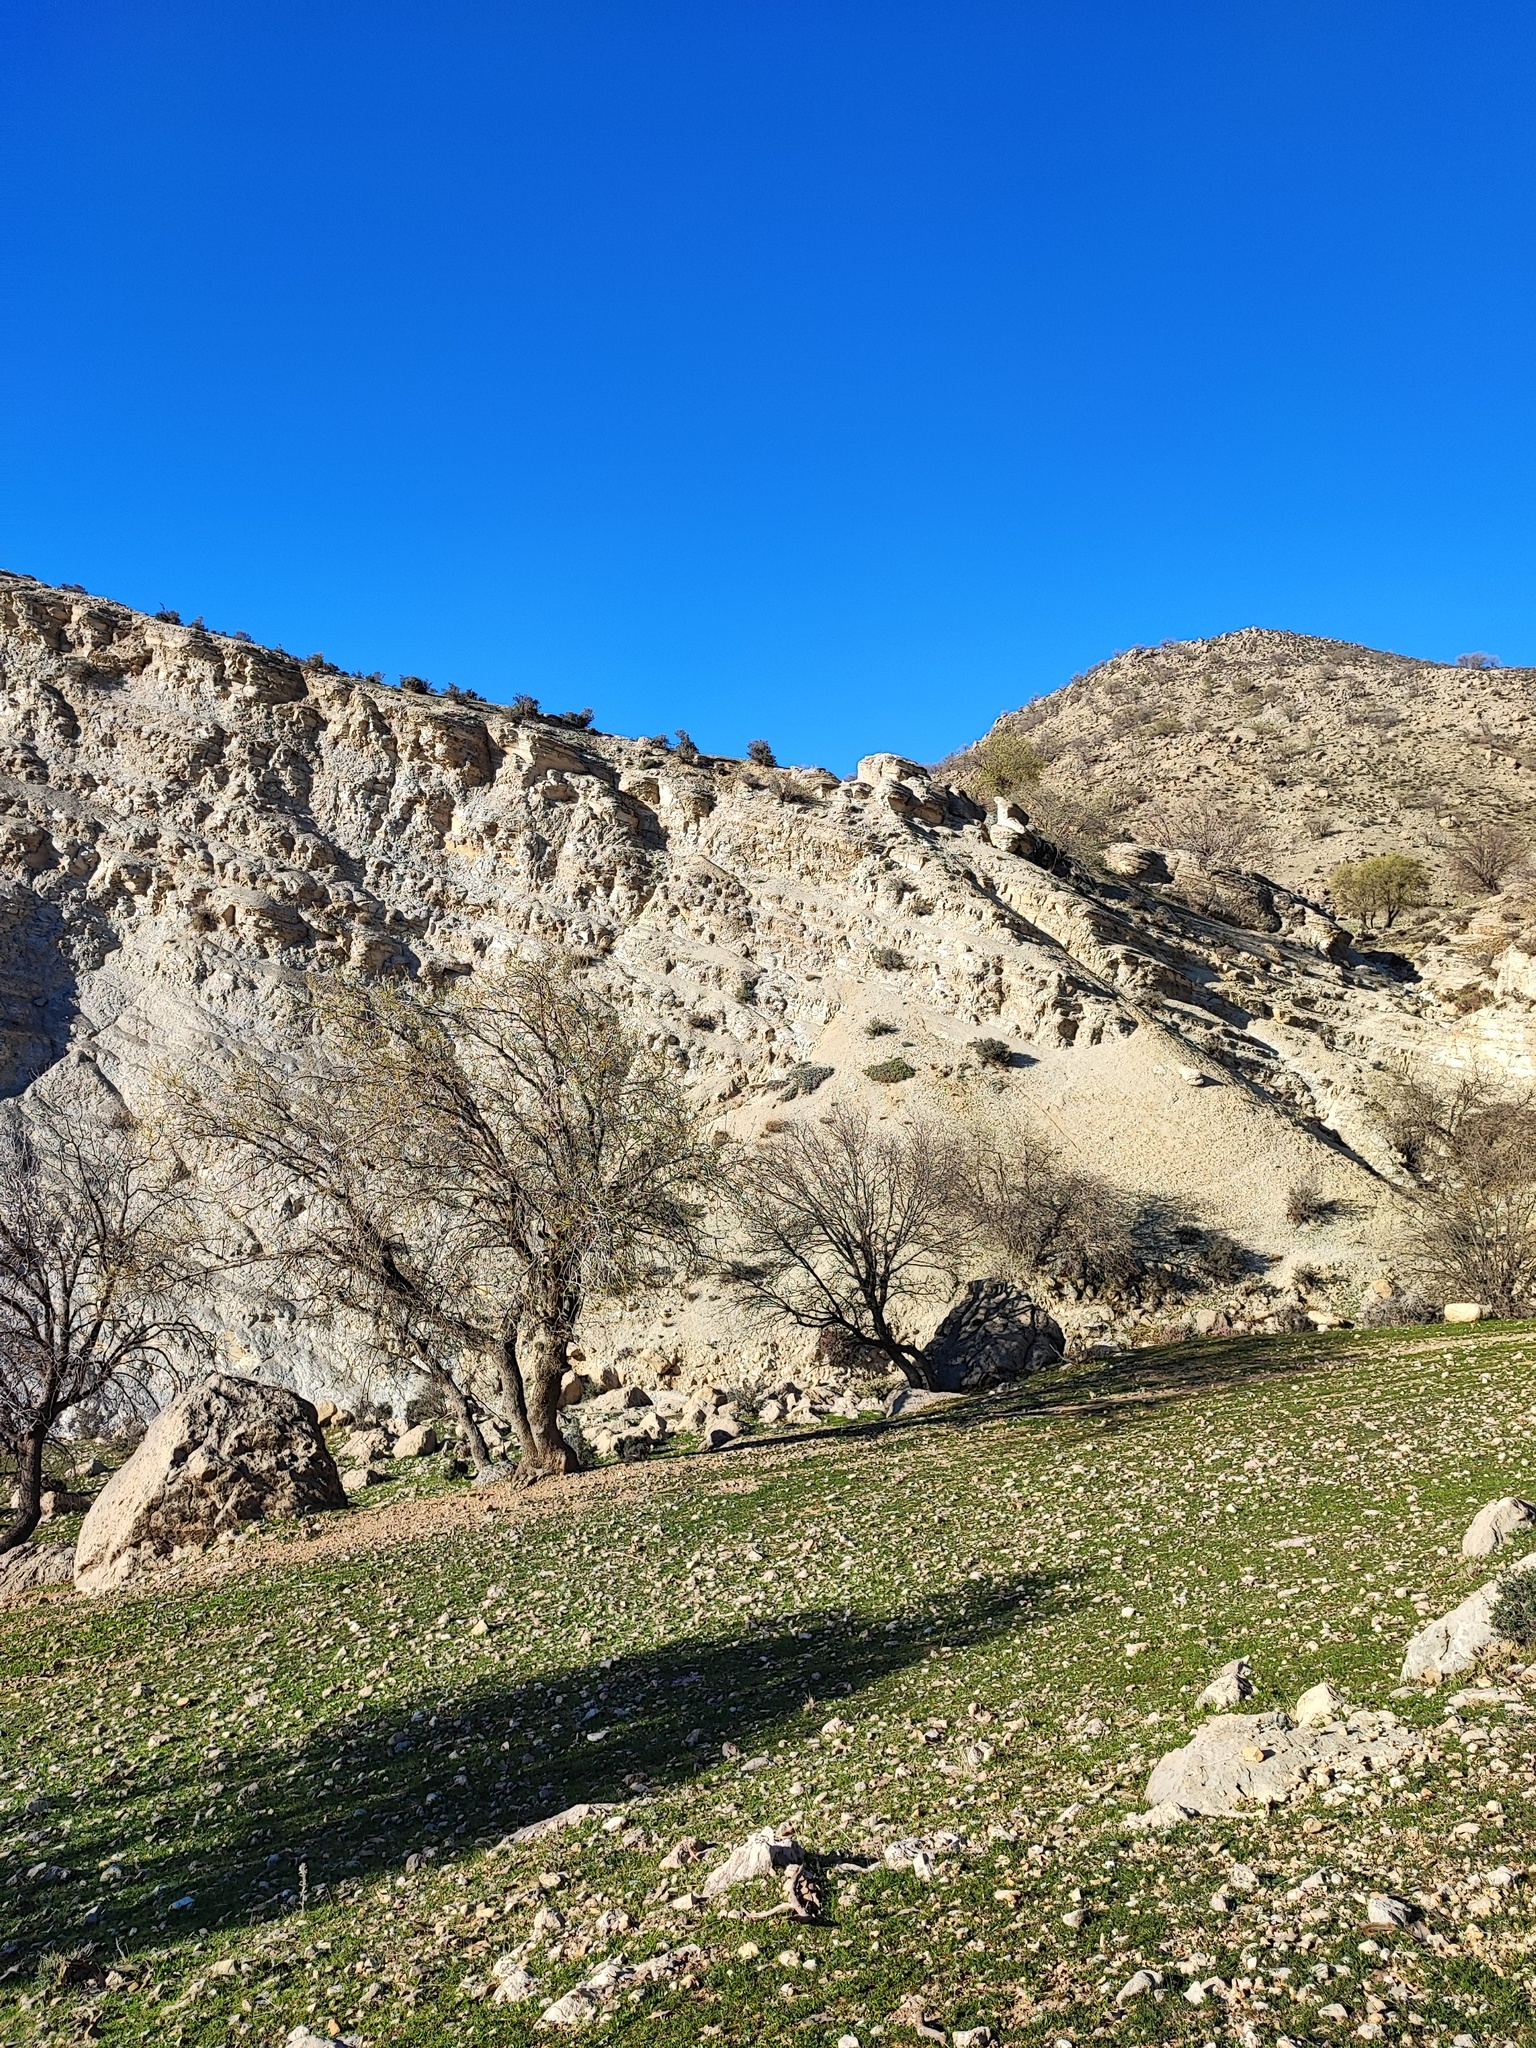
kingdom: Animalia
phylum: Arthropoda
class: Arachnida
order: Scorpiones
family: Buthidae
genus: Hottentotta
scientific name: Hottentotta zagrosensis
